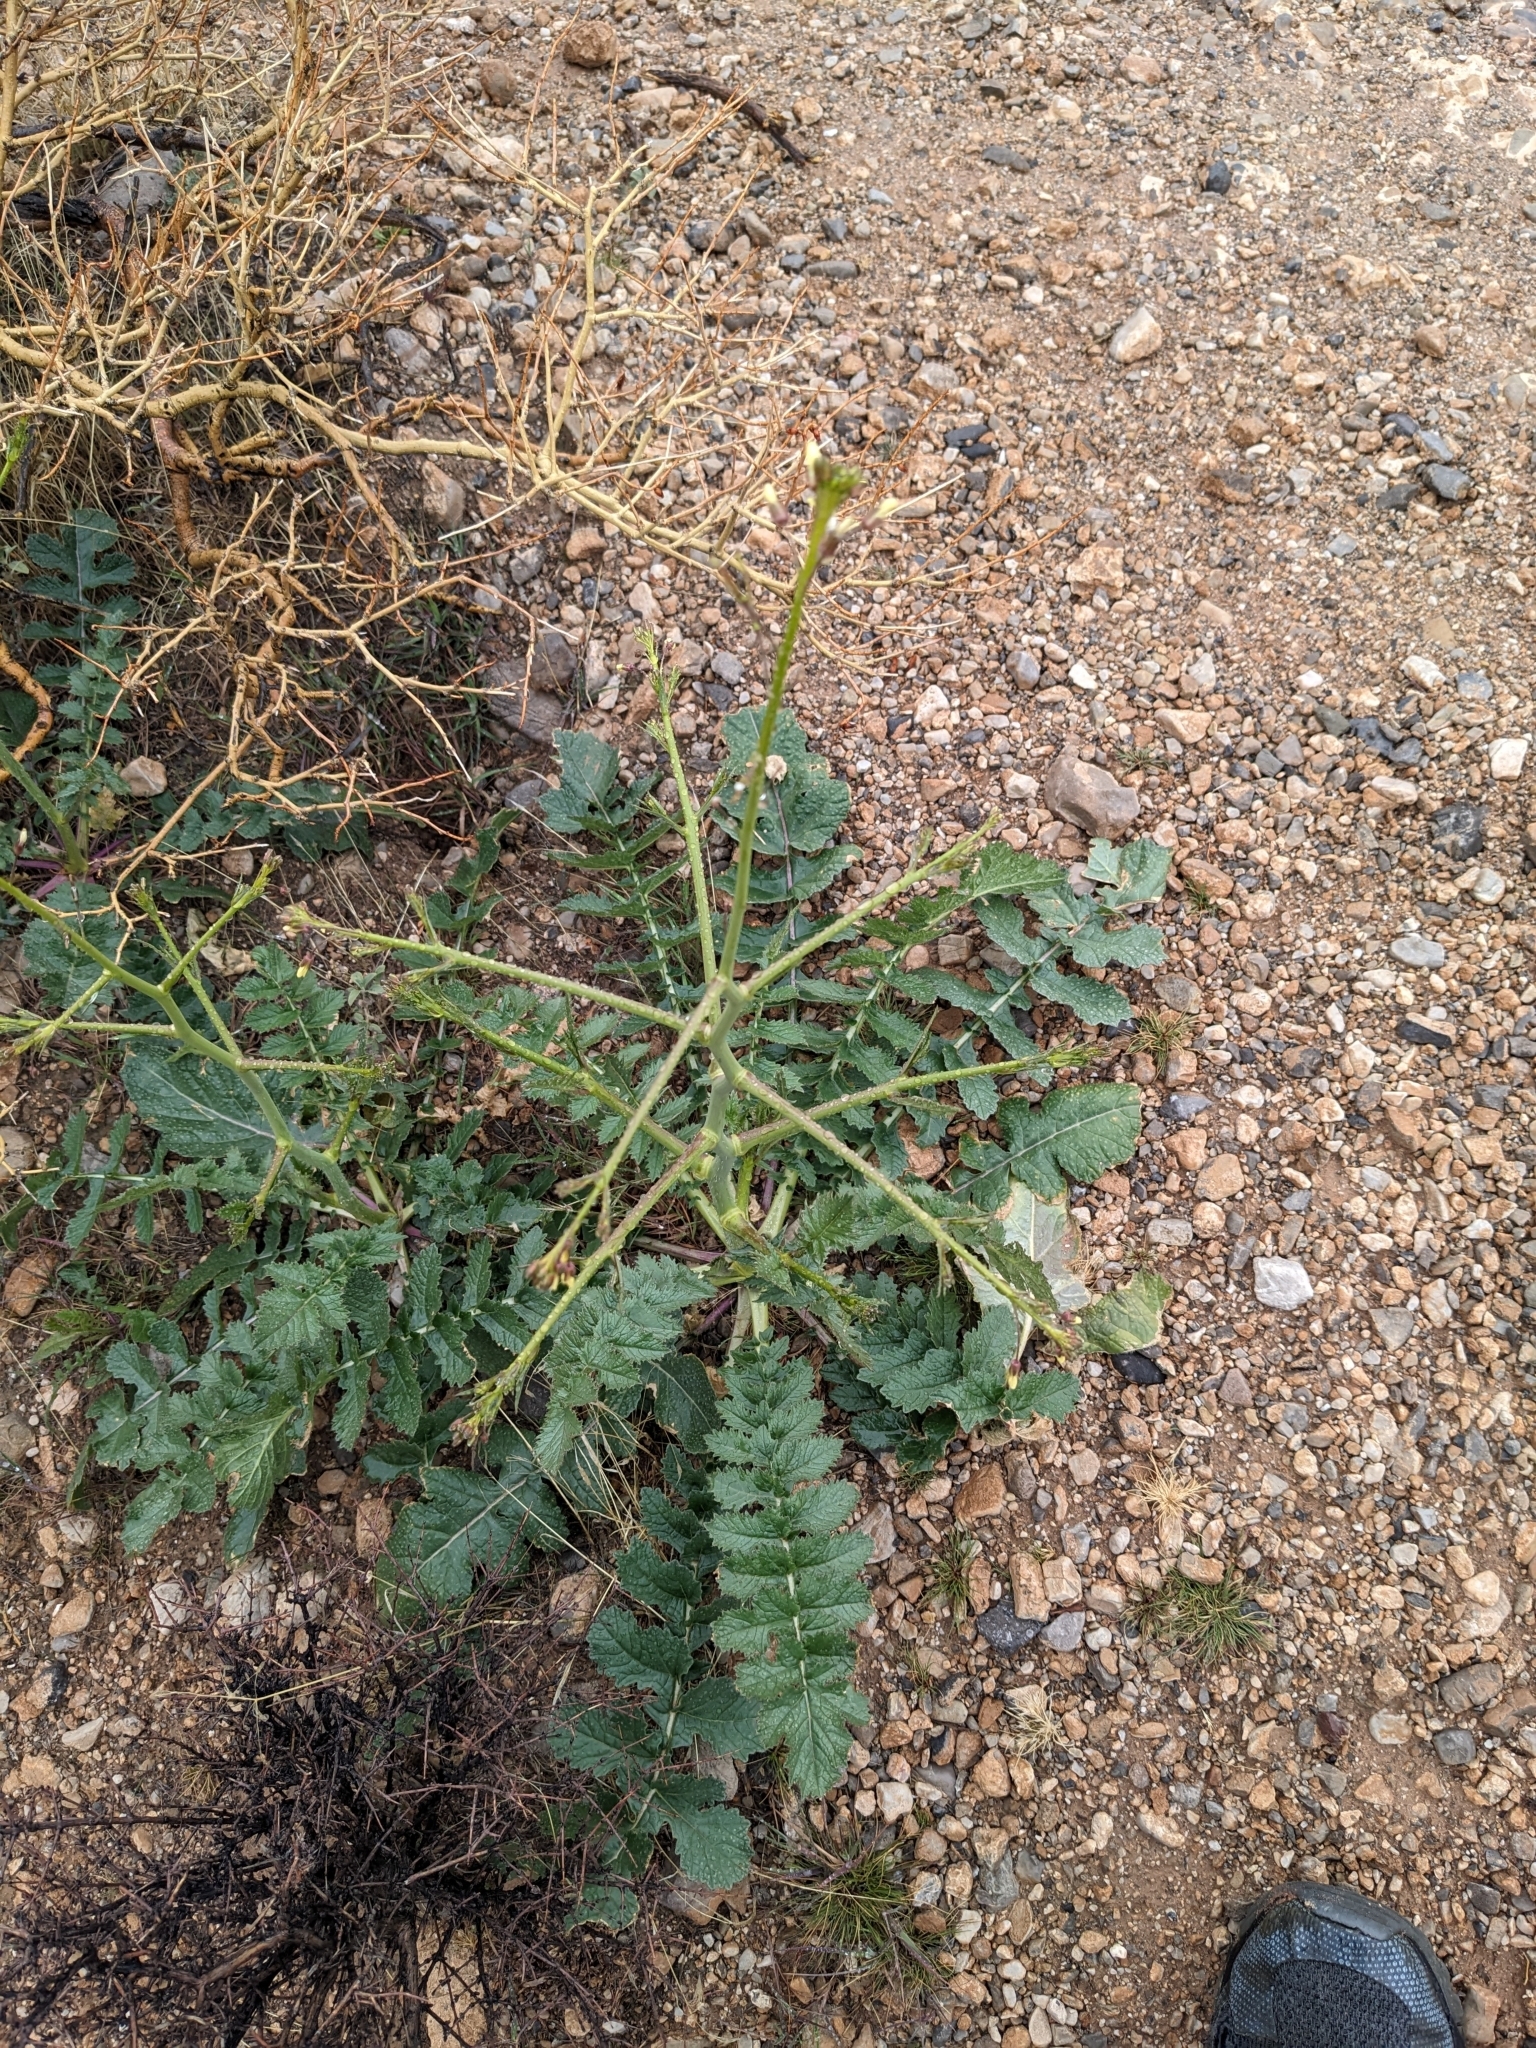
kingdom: Plantae
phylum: Tracheophyta
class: Magnoliopsida
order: Brassicales
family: Brassicaceae
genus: Brassica
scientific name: Brassica tournefortii
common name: Pale cabbage
